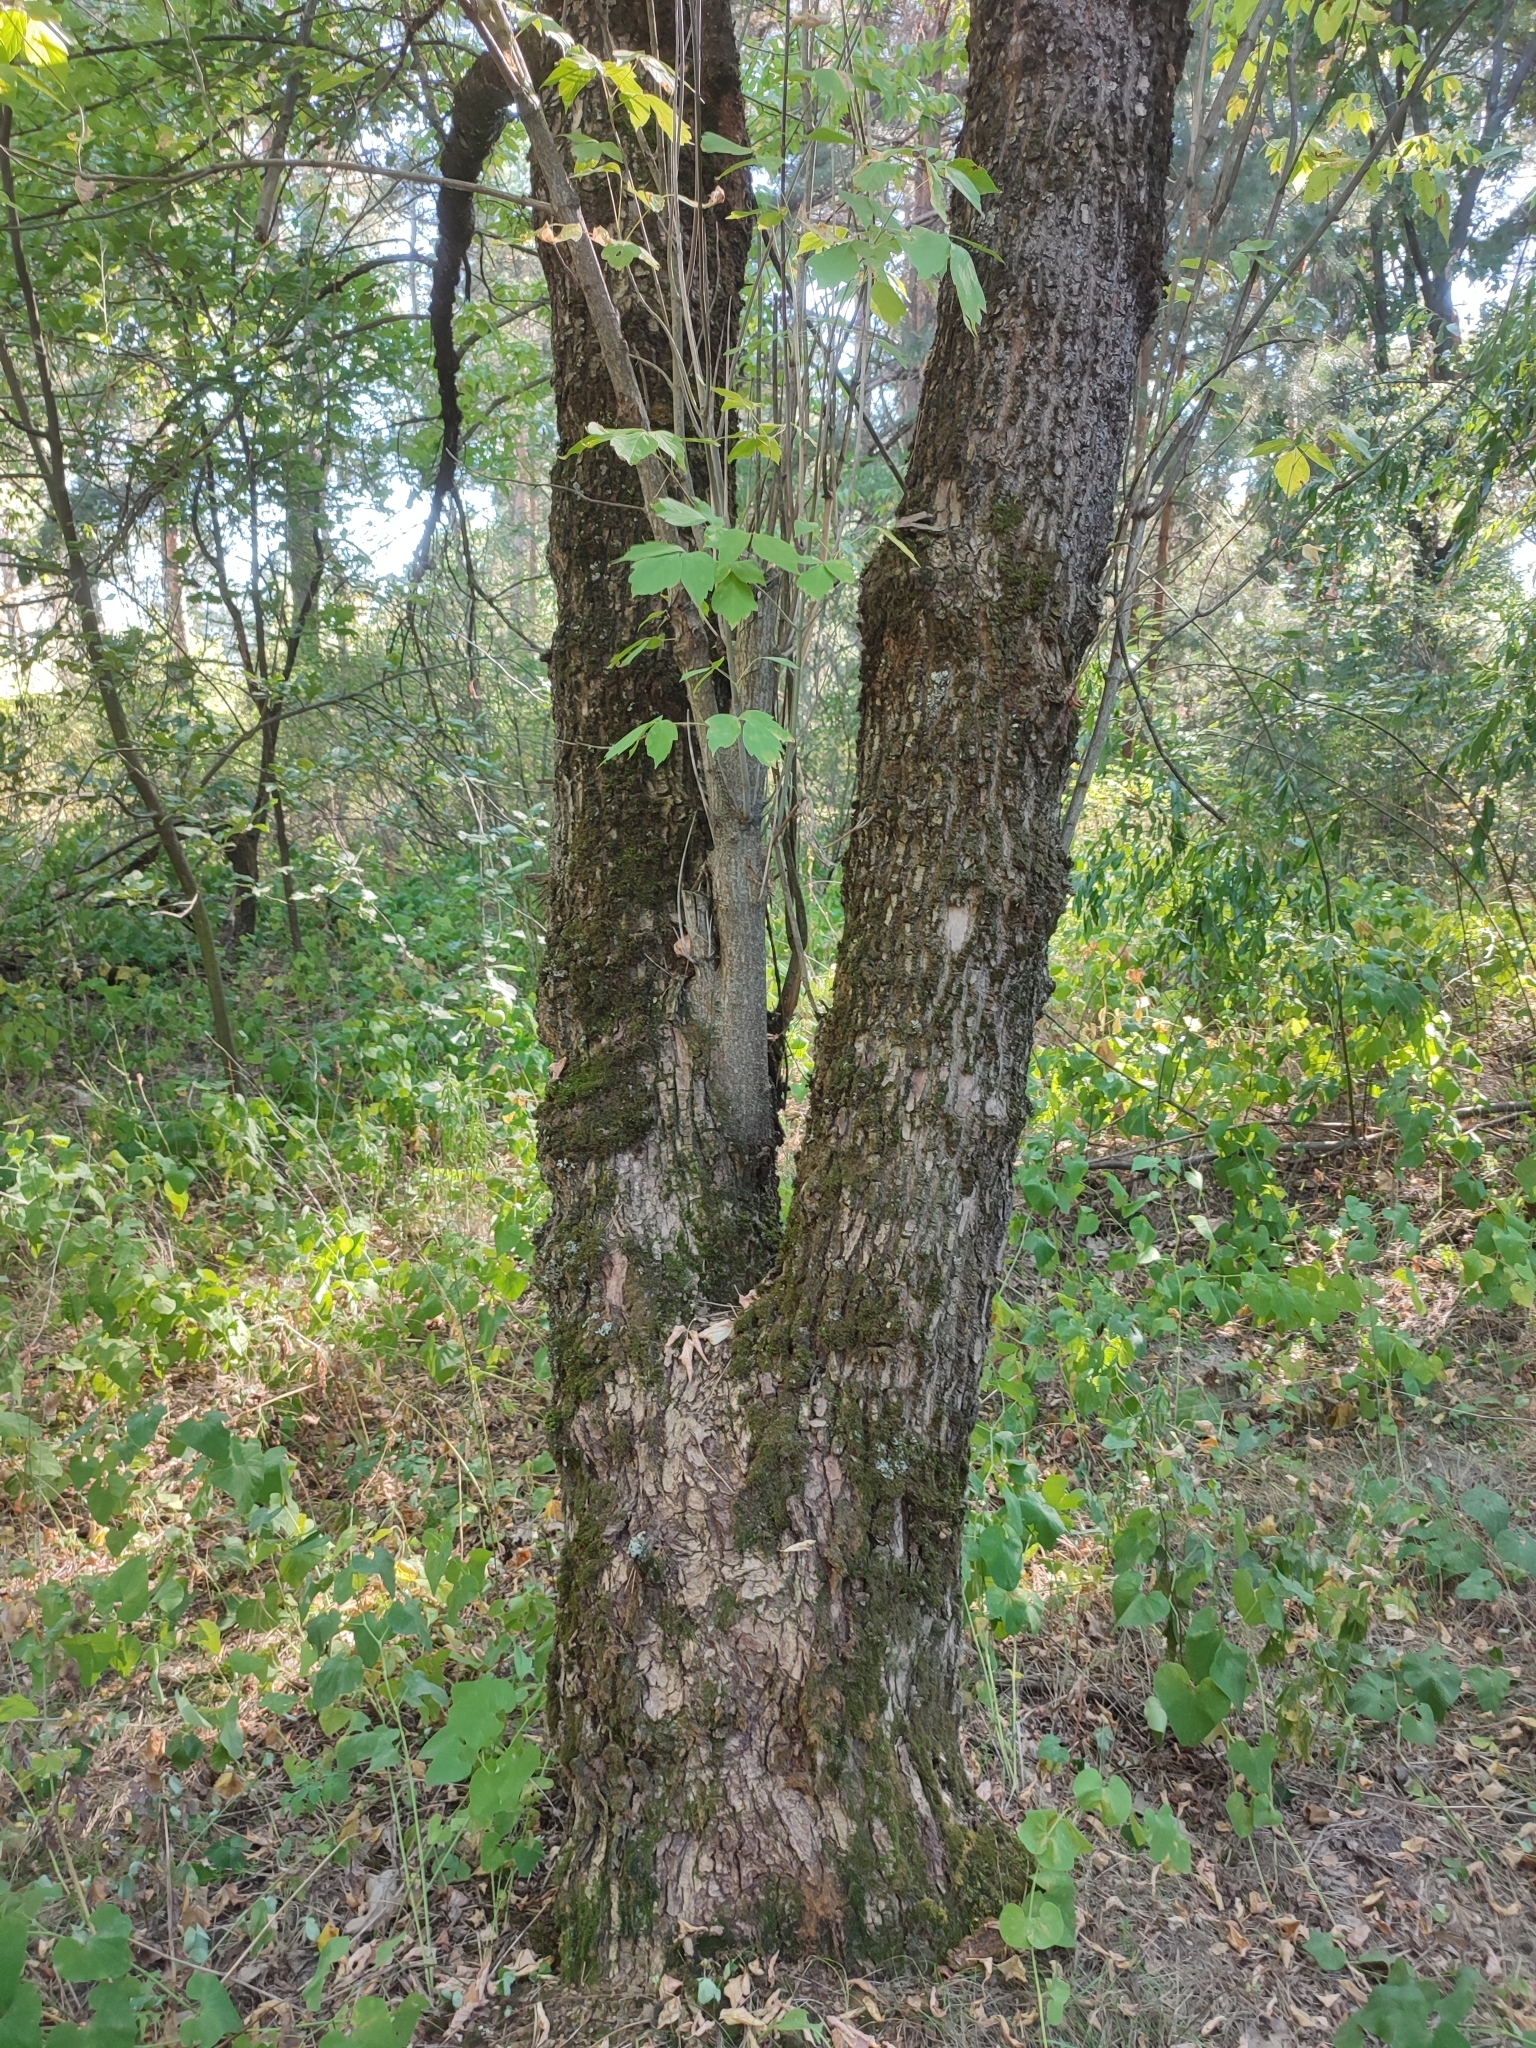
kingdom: Plantae
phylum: Tracheophyta
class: Magnoliopsida
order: Sapindales
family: Sapindaceae
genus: Acer
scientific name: Acer negundo
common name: Ashleaf maple
